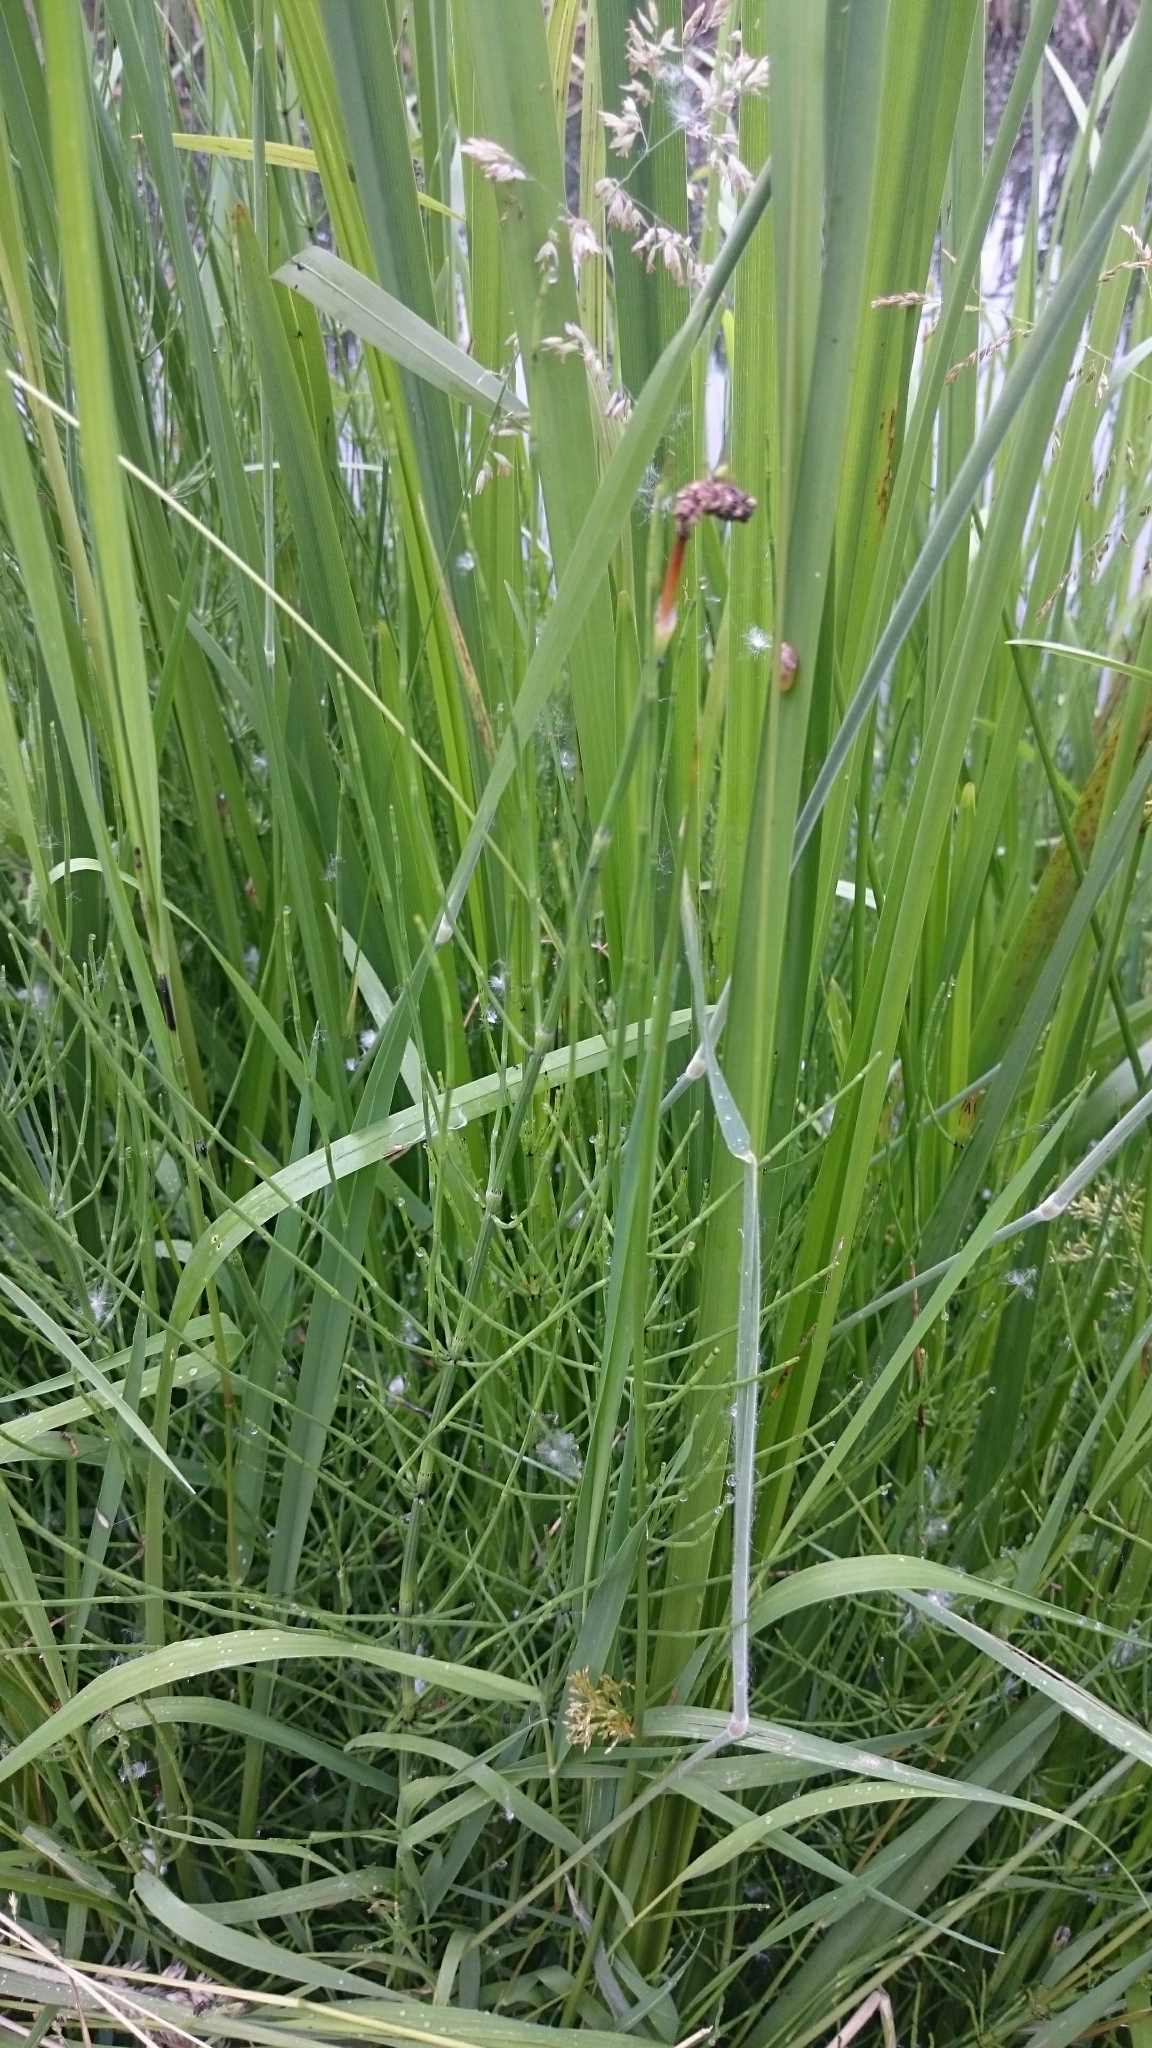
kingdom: Plantae
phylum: Tracheophyta
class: Polypodiopsida
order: Equisetales
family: Equisetaceae
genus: Equisetum
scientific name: Equisetum palustre
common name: Marsh horsetail
